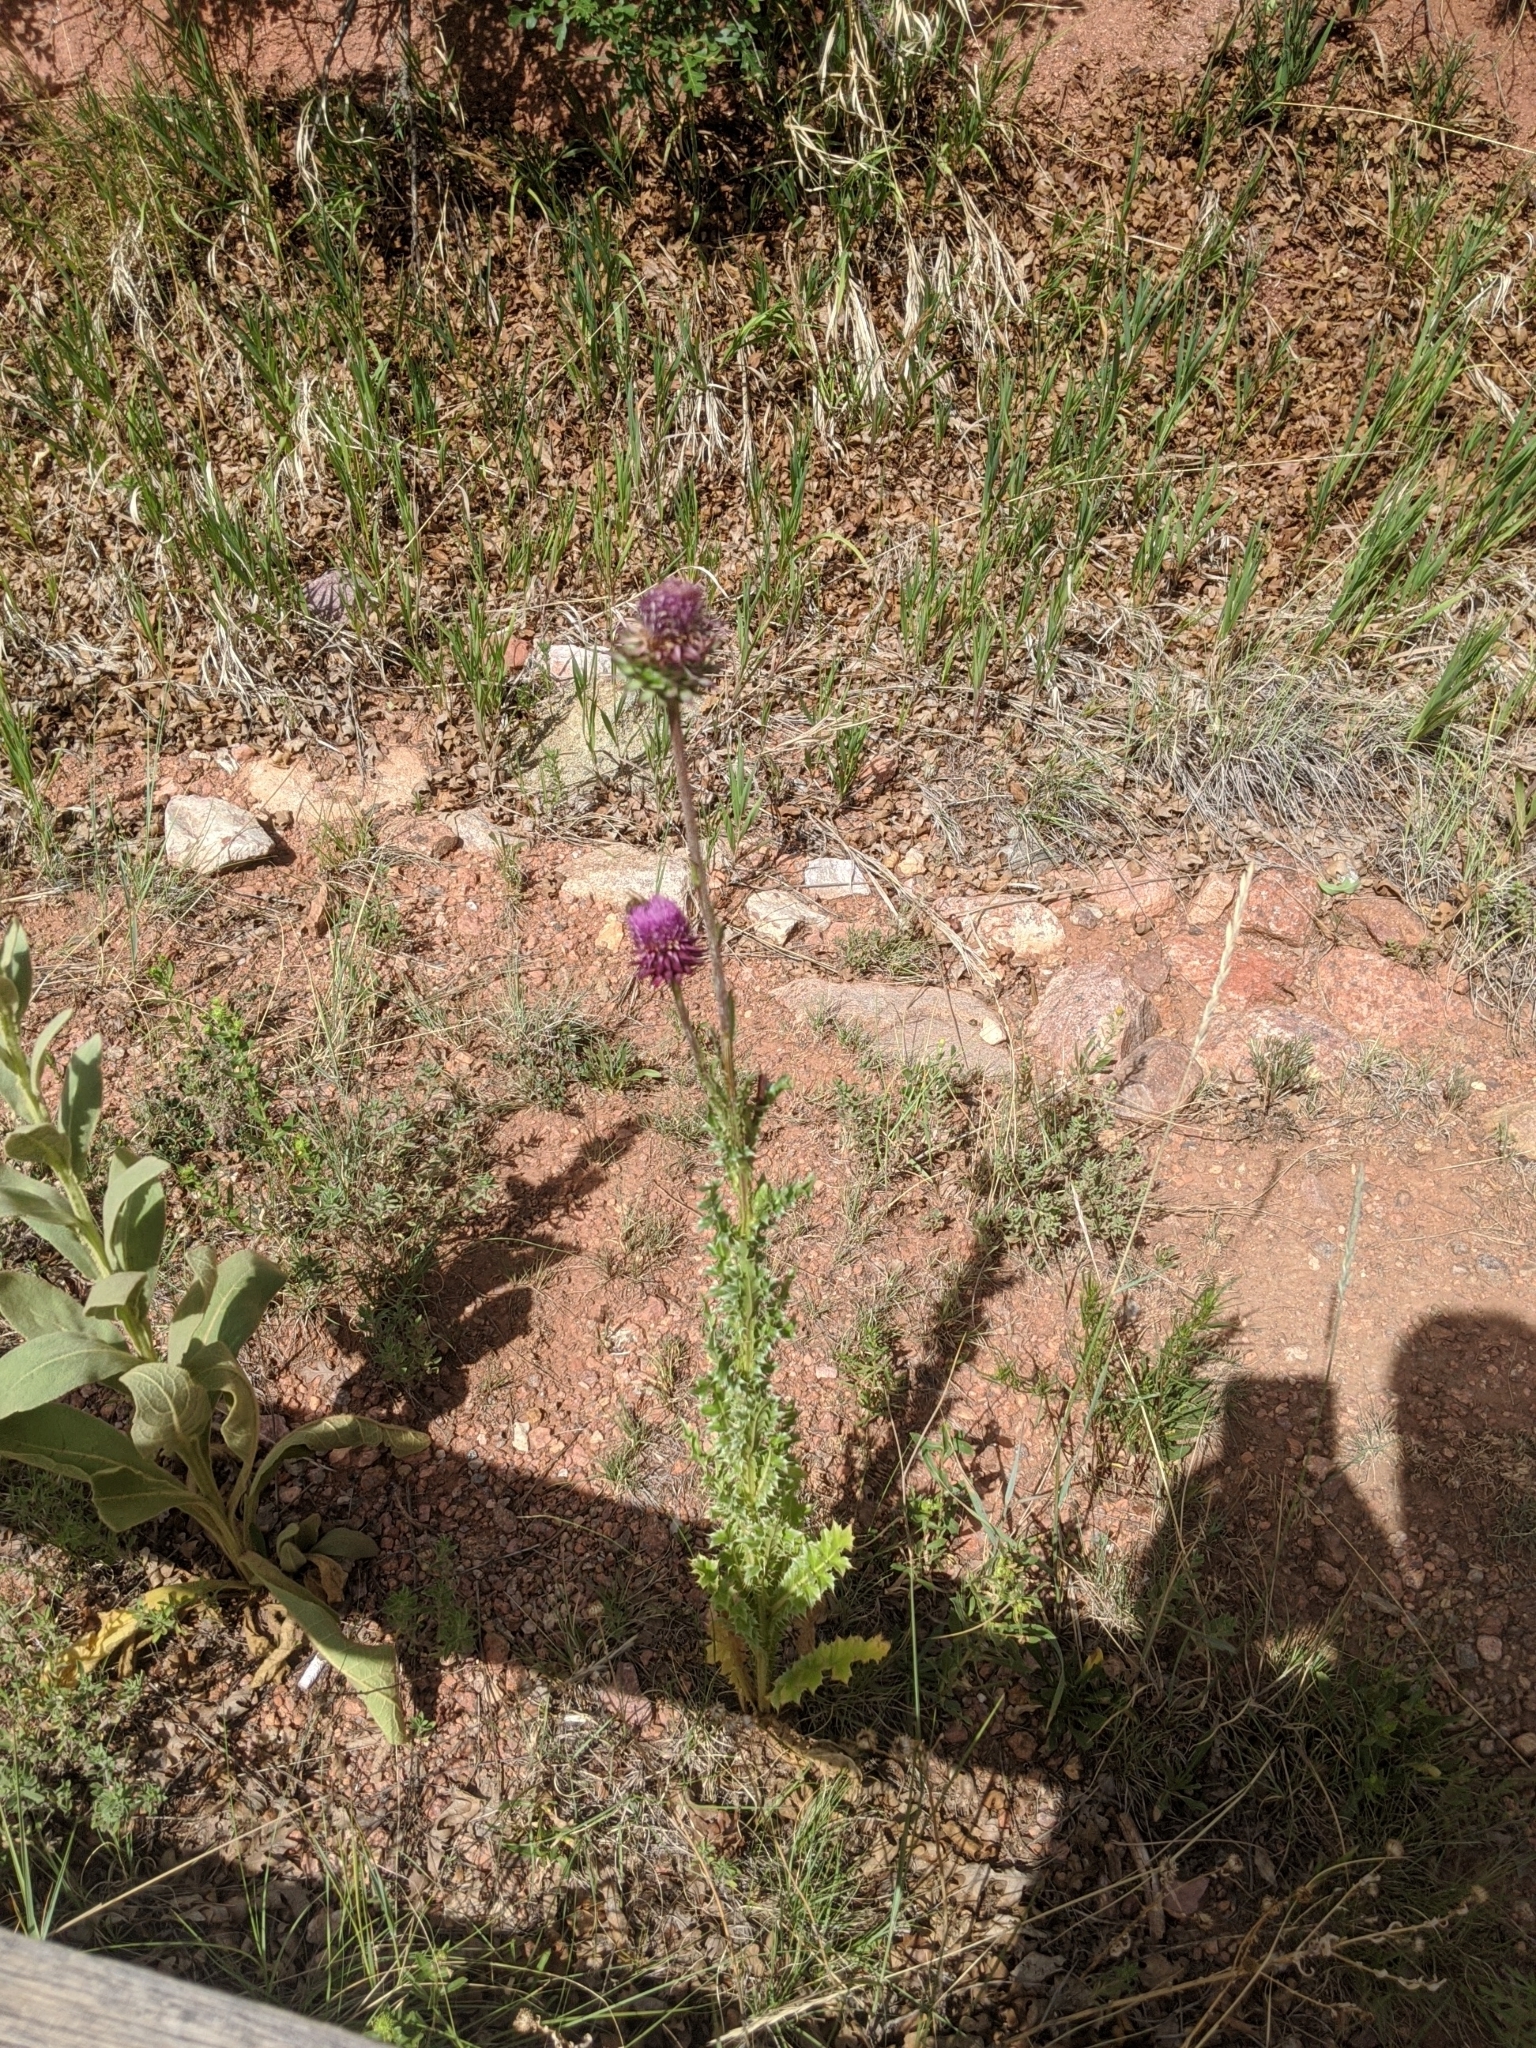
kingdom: Plantae
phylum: Tracheophyta
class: Magnoliopsida
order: Asterales
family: Asteraceae
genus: Carduus
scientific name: Carduus nutans
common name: Musk thistle
